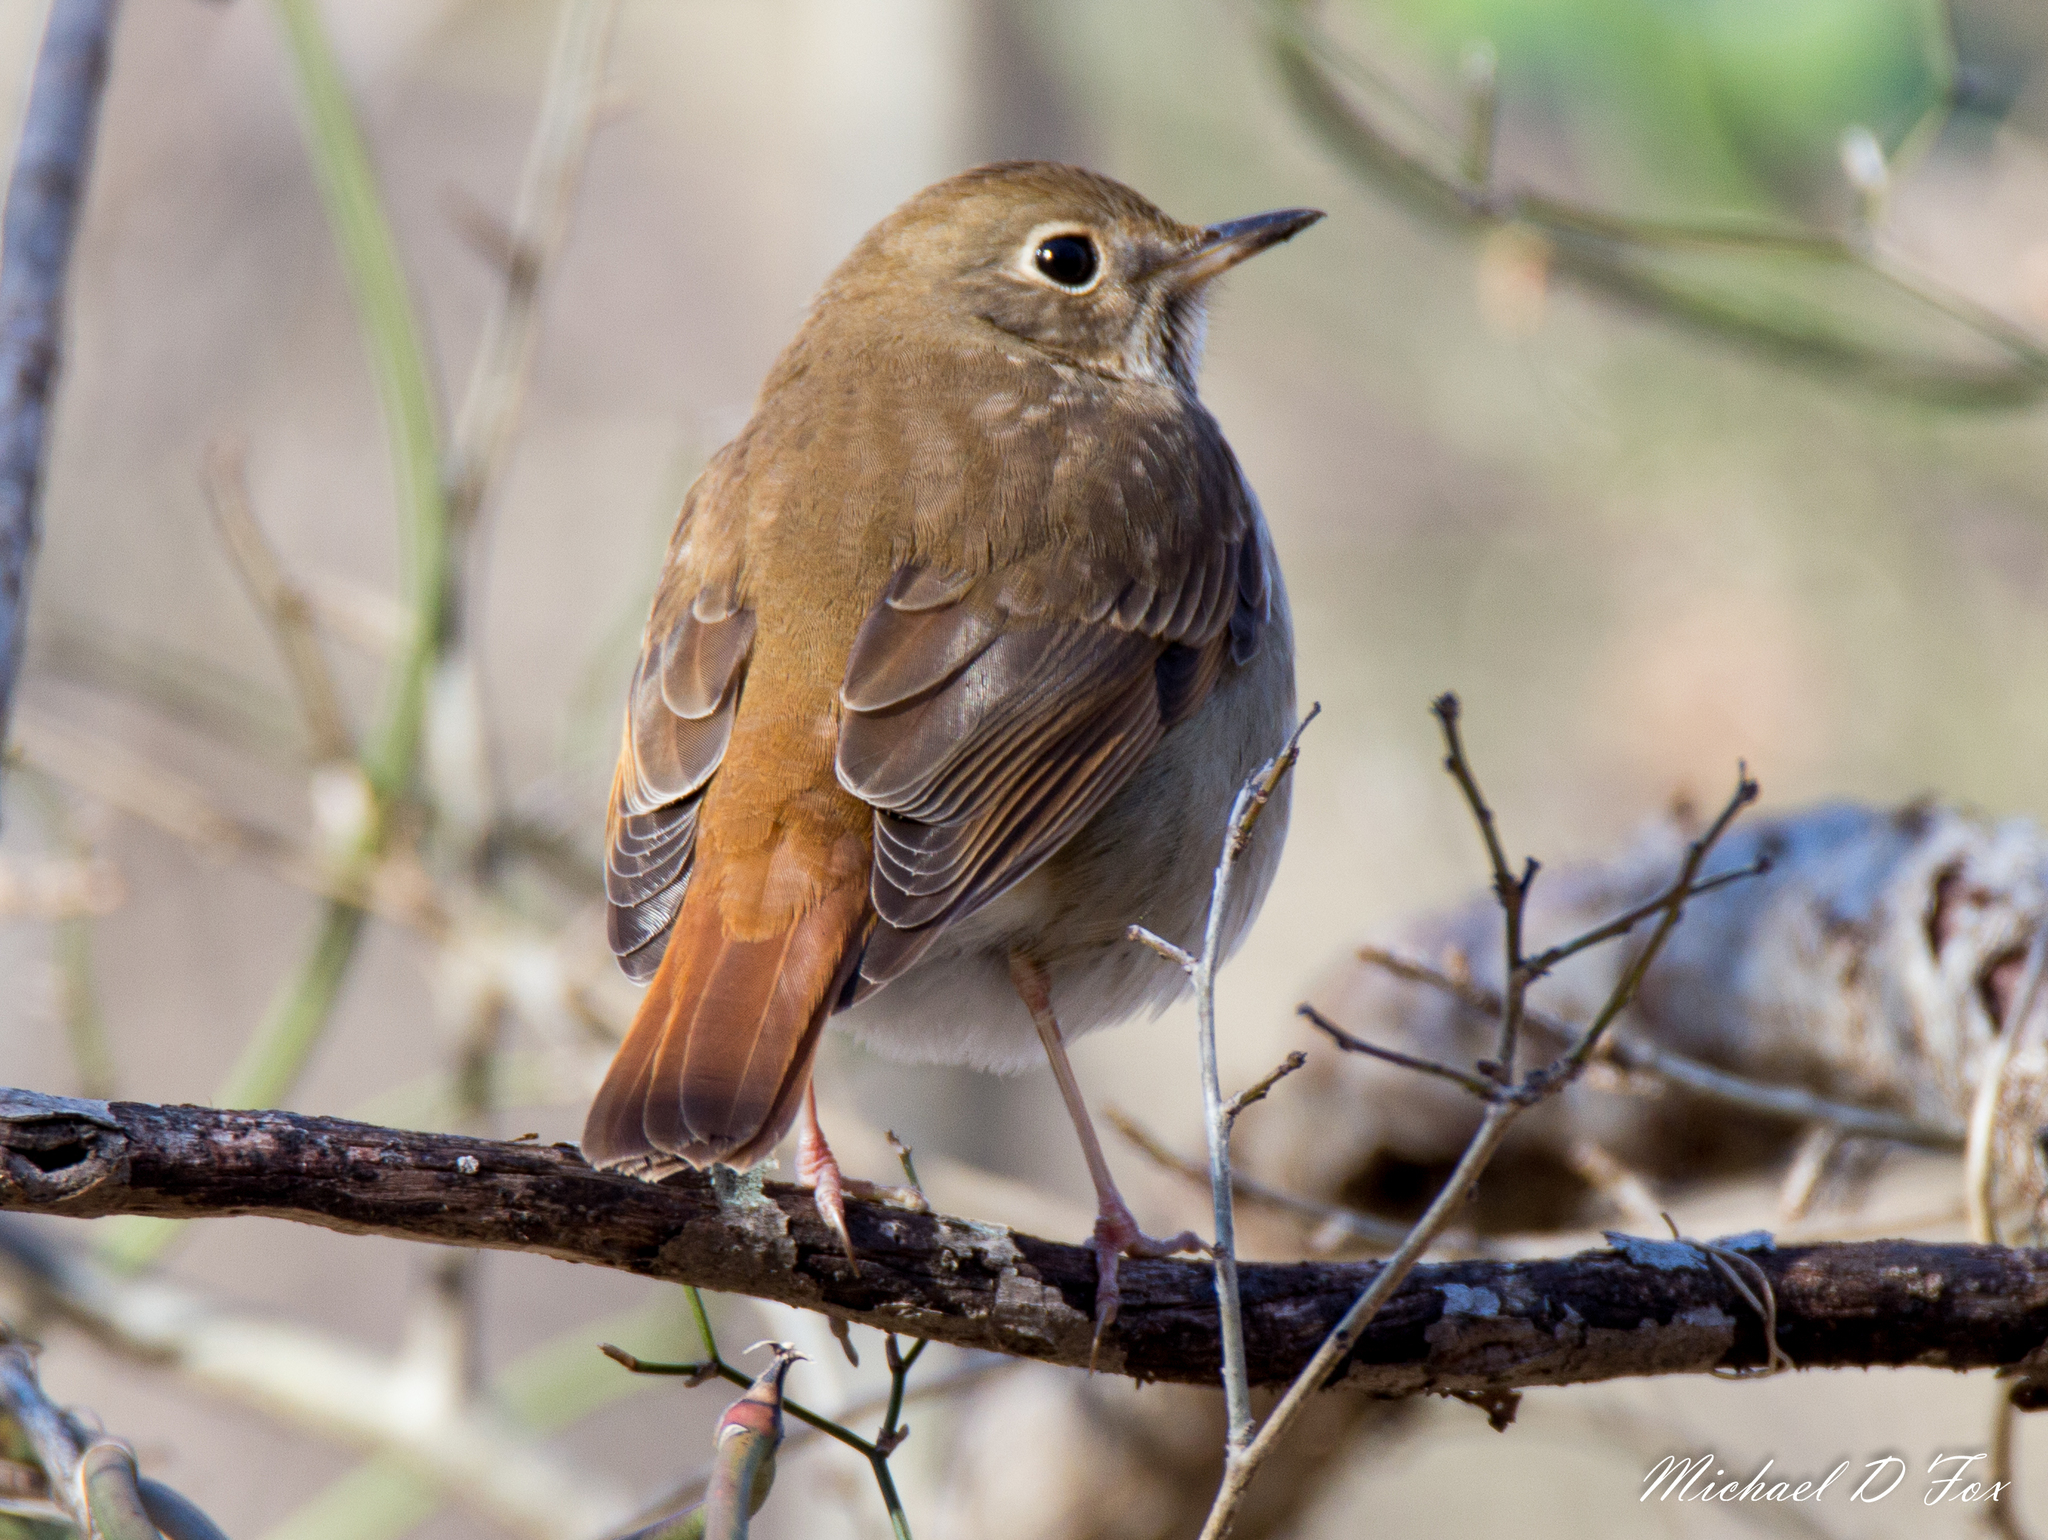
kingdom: Animalia
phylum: Chordata
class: Aves
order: Passeriformes
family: Turdidae
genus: Catharus
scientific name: Catharus guttatus
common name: Hermit thrush
